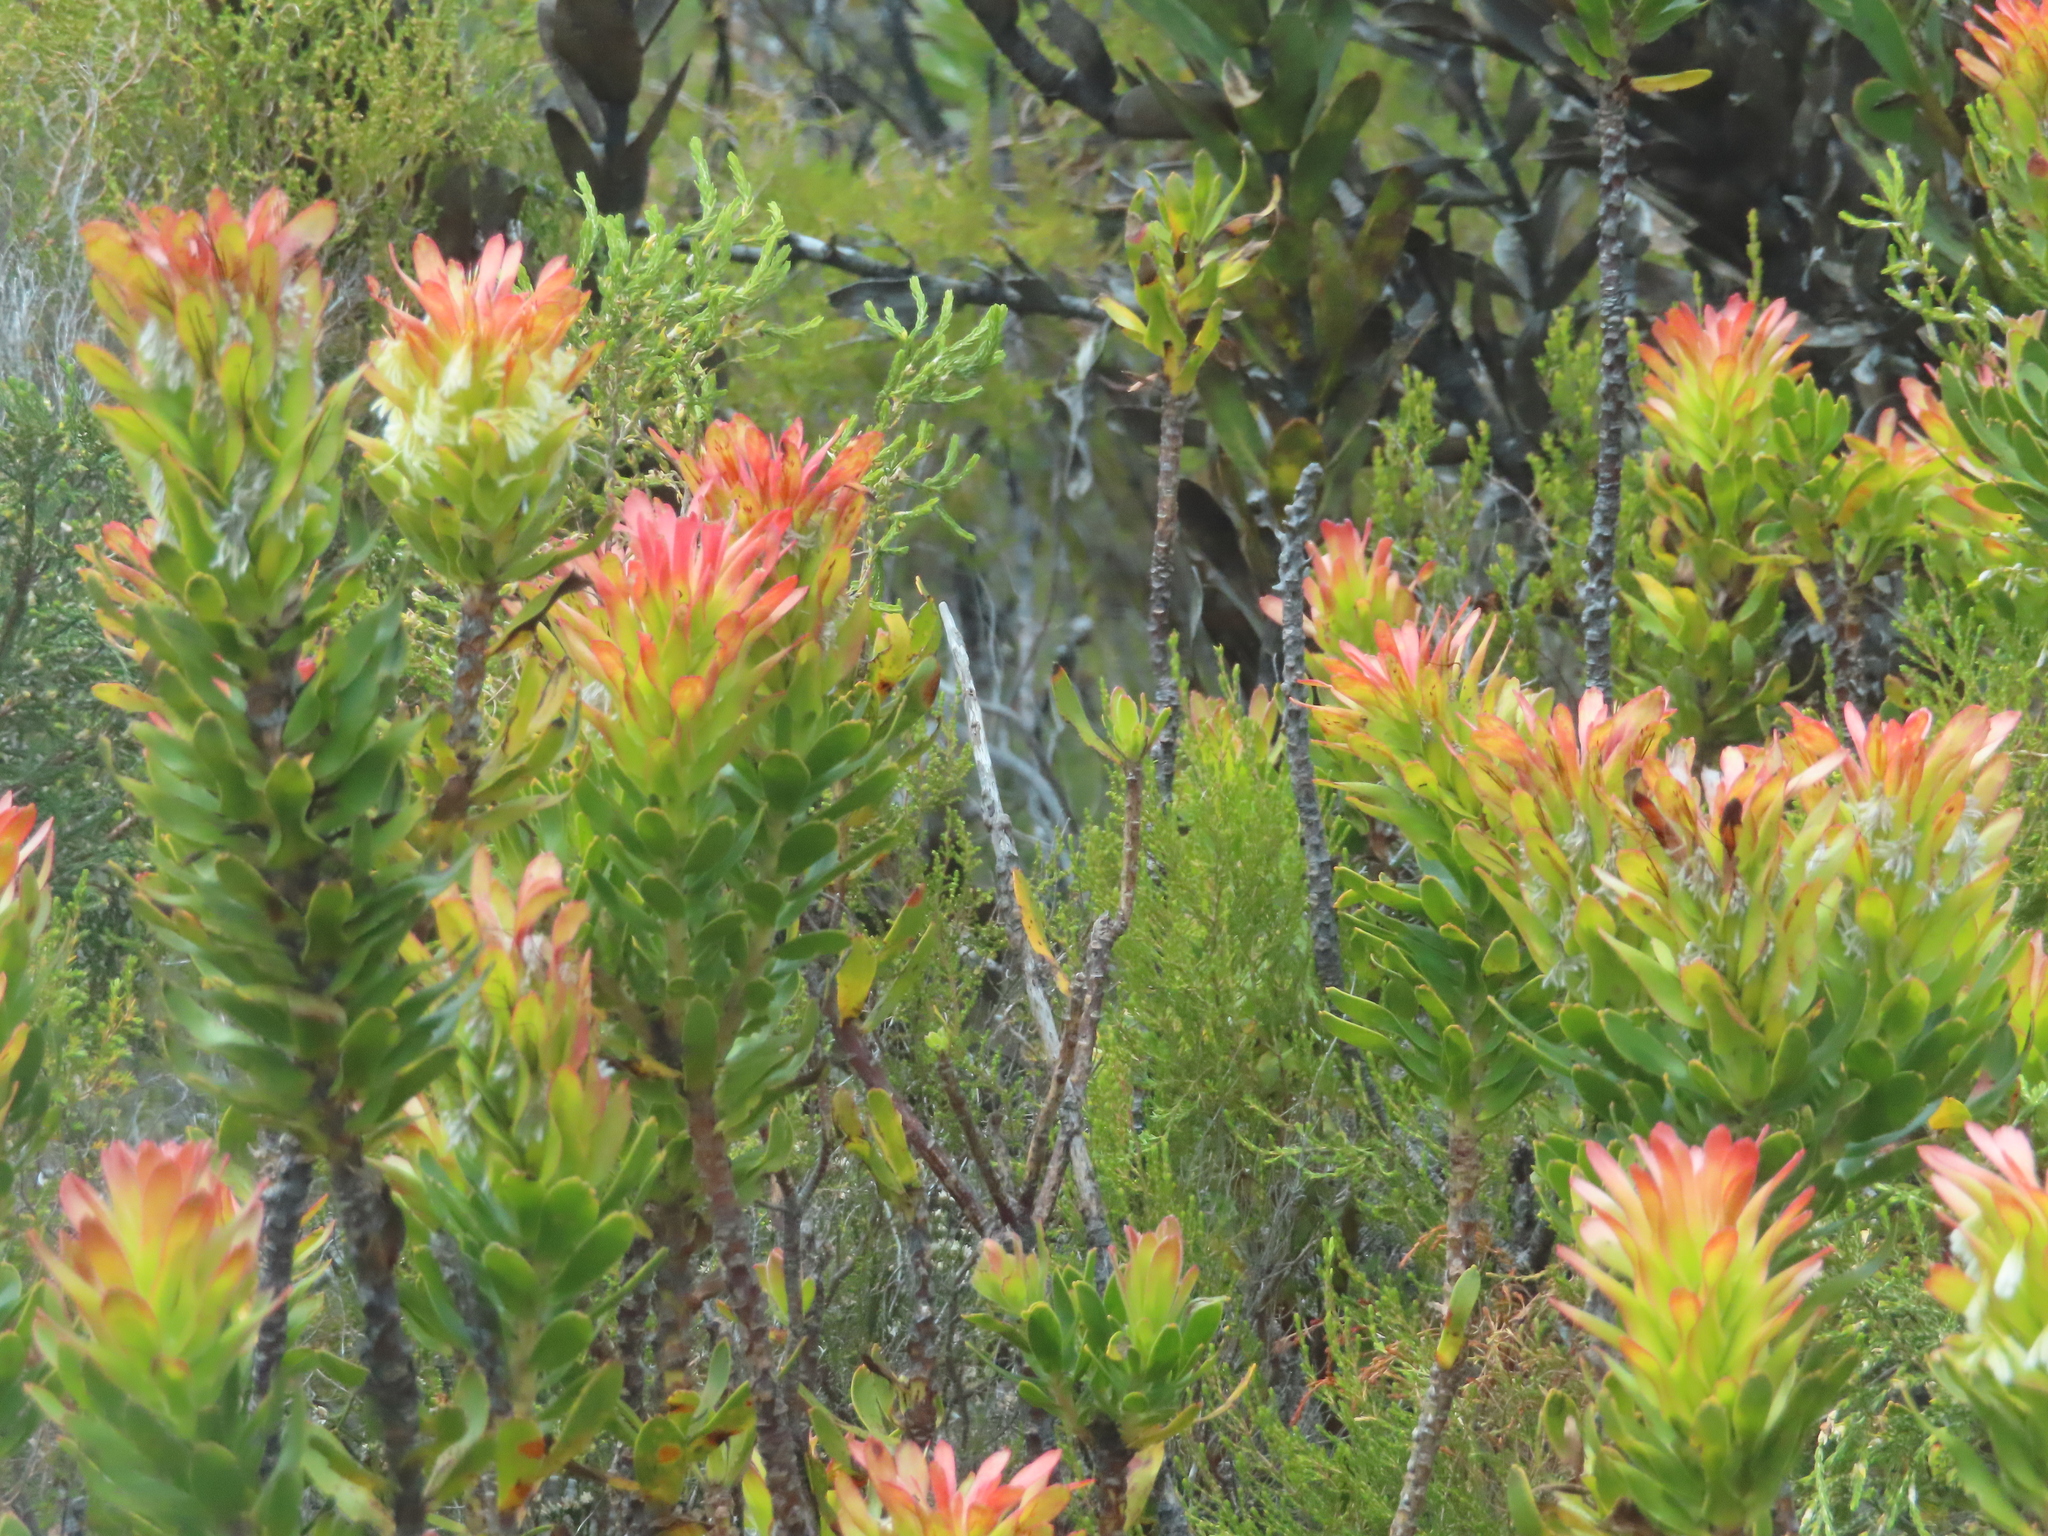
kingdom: Plantae
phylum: Tracheophyta
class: Magnoliopsida
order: Proteales
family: Proteaceae
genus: Mimetes
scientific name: Mimetes cucullatus
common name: Common pagoda
